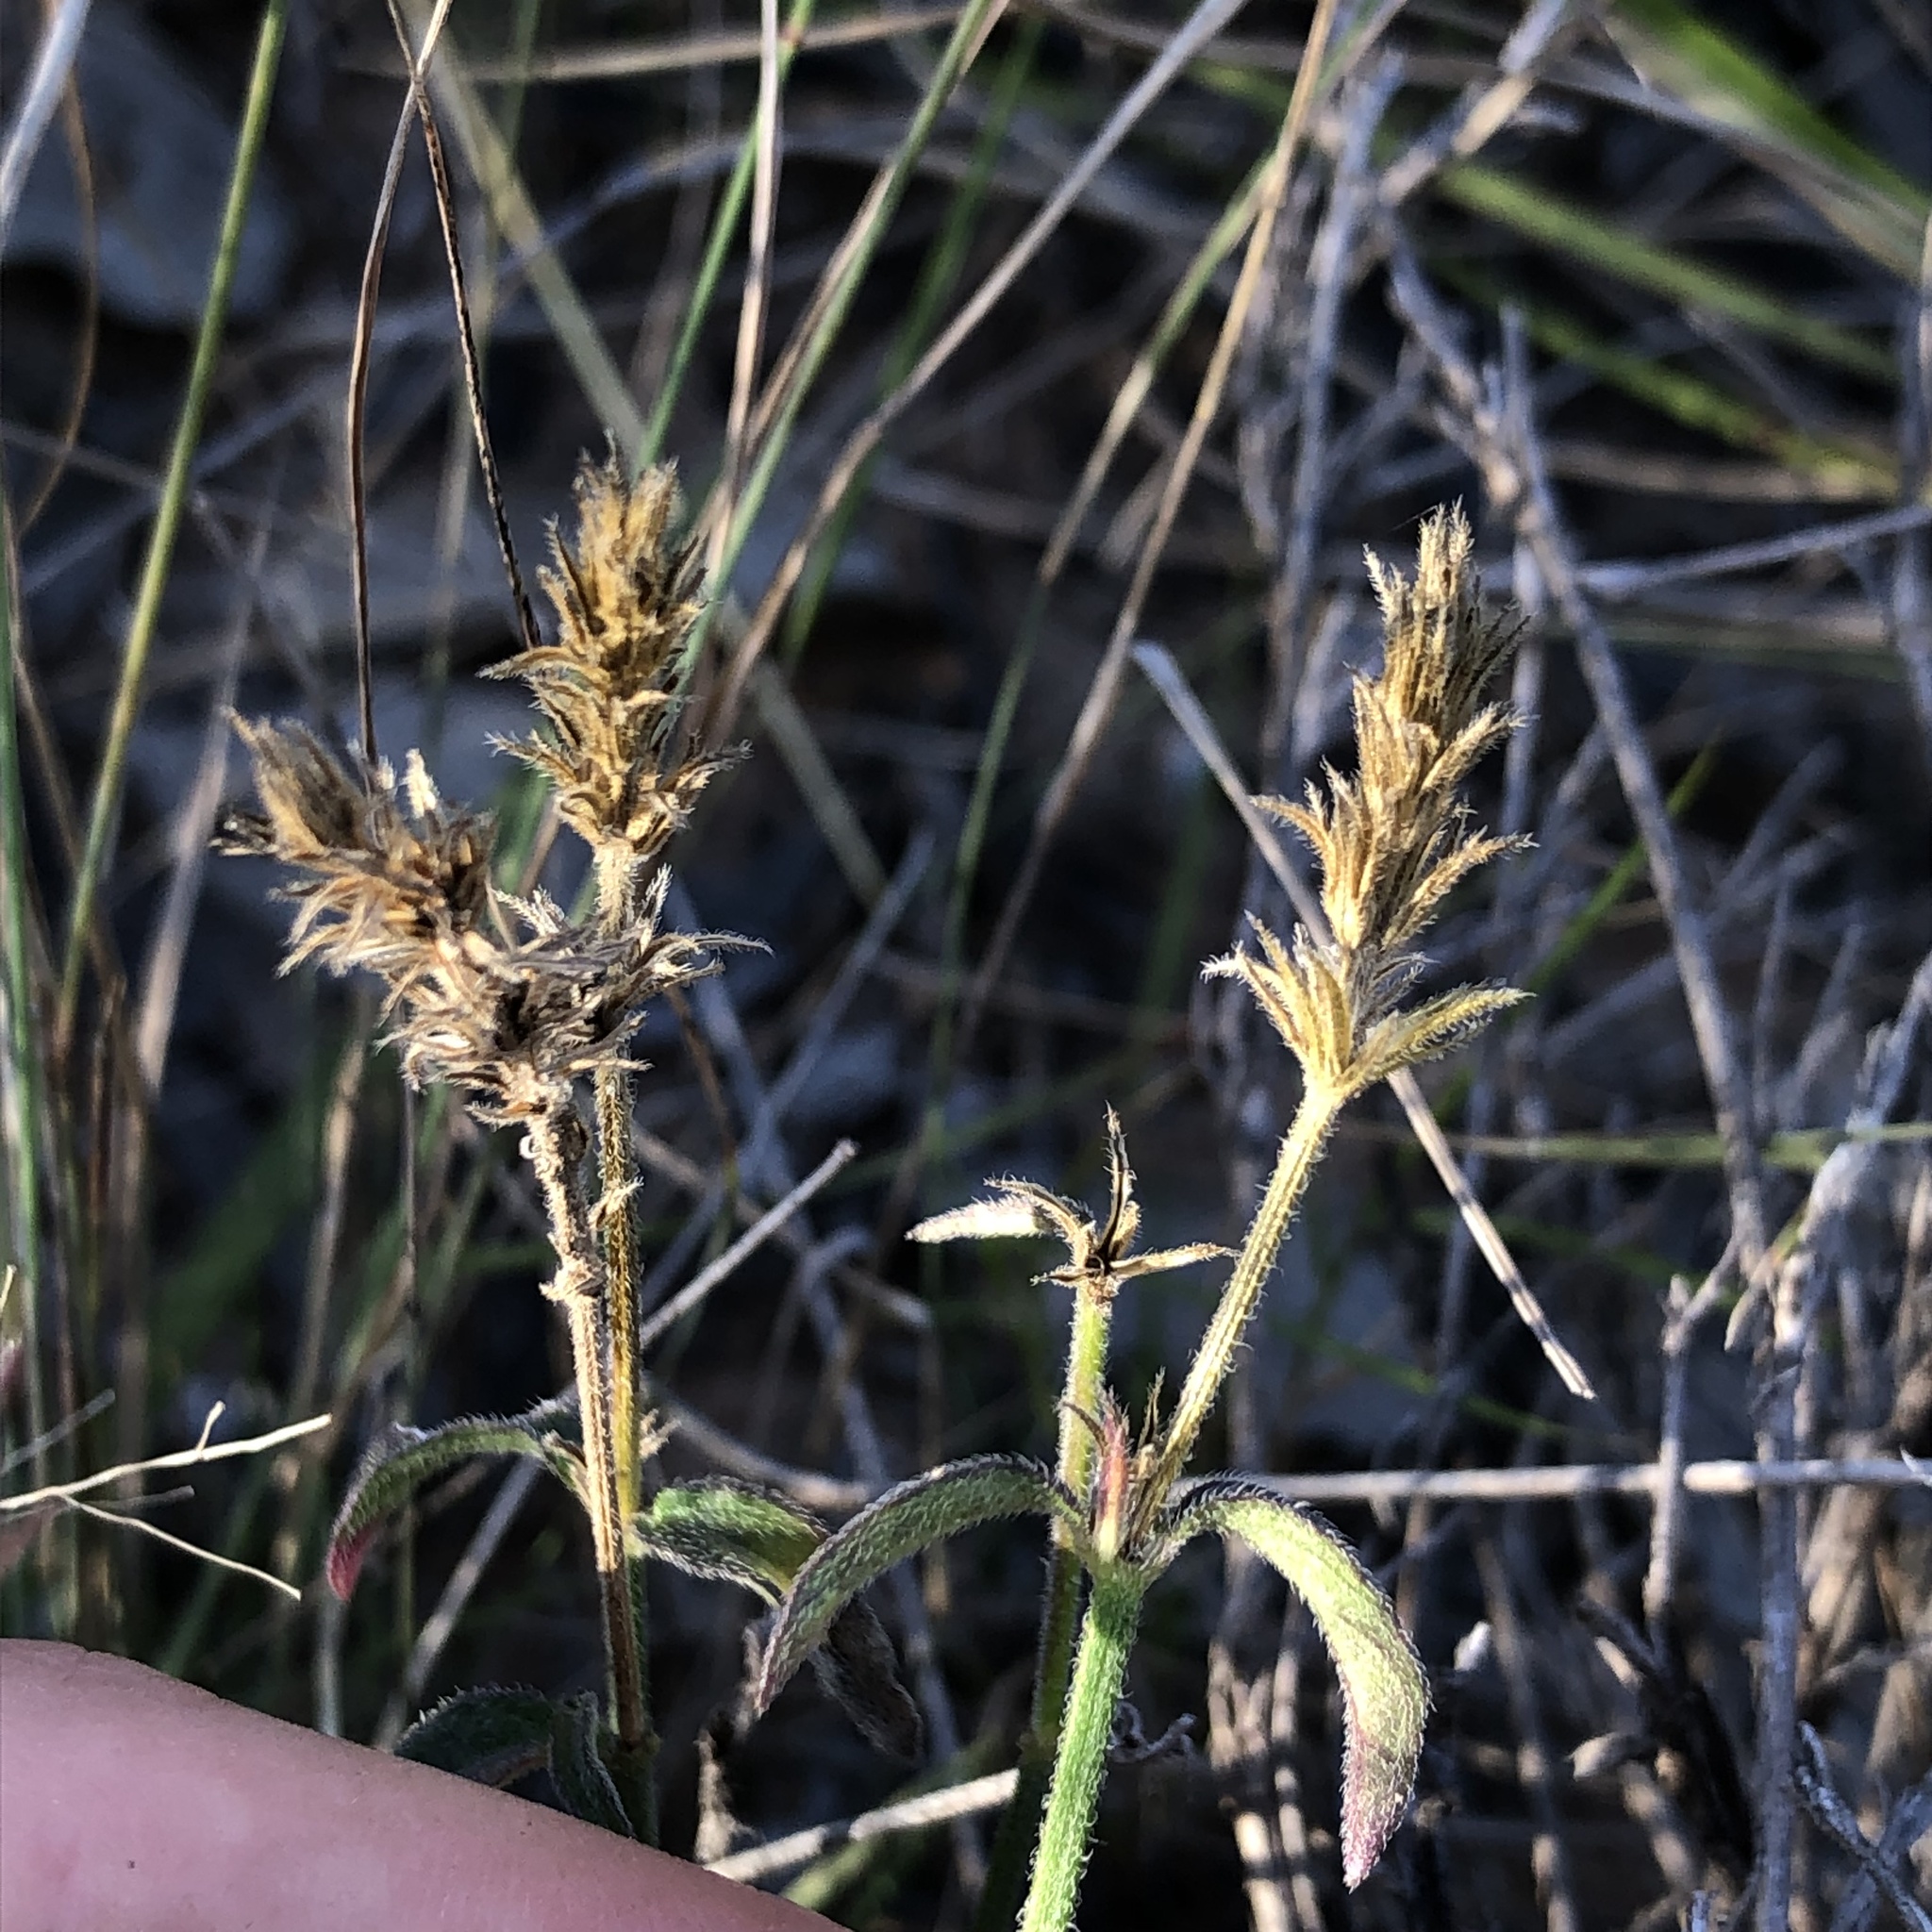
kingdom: Plantae
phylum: Tracheophyta
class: Magnoliopsida
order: Lamiales
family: Acanthaceae
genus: Rostellularia
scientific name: Rostellularia adscendens
